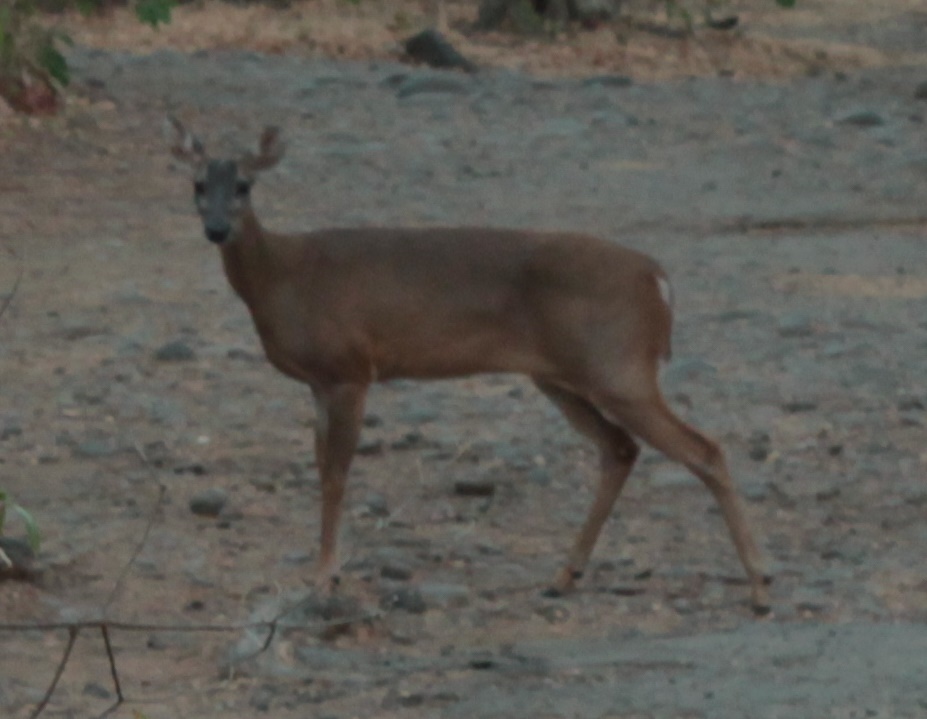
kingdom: Animalia
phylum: Chordata
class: Mammalia
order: Artiodactyla
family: Cervidae
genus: Odocoileus
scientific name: Odocoileus virginianus
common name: White-tailed deer
